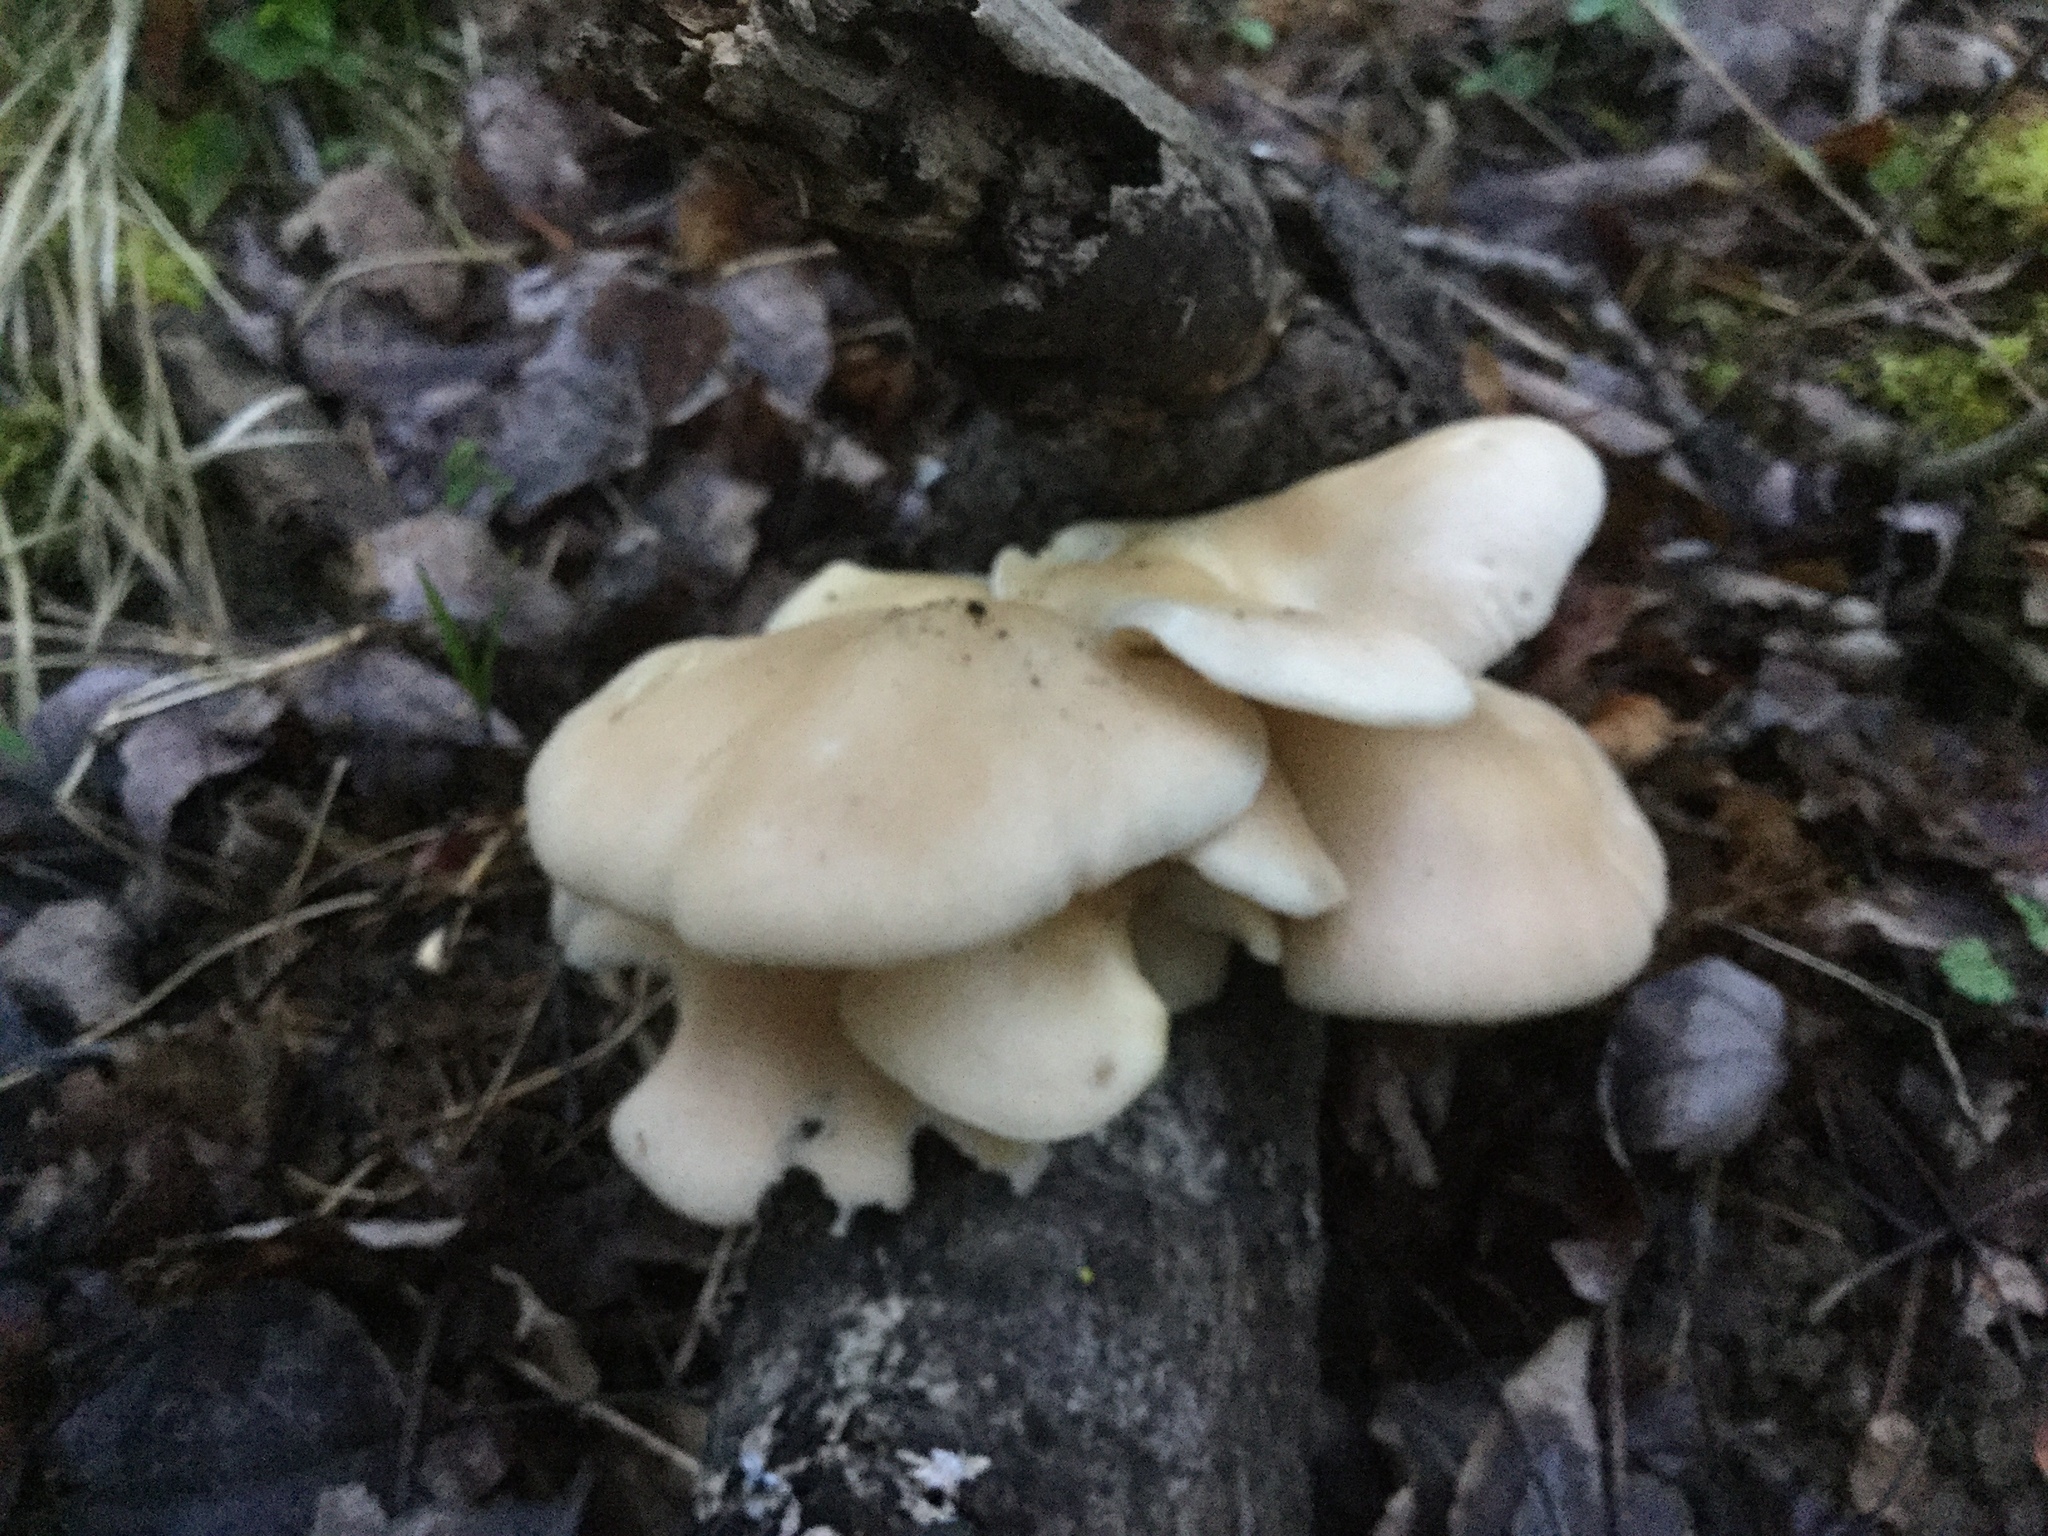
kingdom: Fungi
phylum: Basidiomycota
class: Agaricomycetes
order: Agaricales
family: Pleurotaceae
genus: Pleurotus
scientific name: Pleurotus populinus
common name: Aspen oyster mushroom
